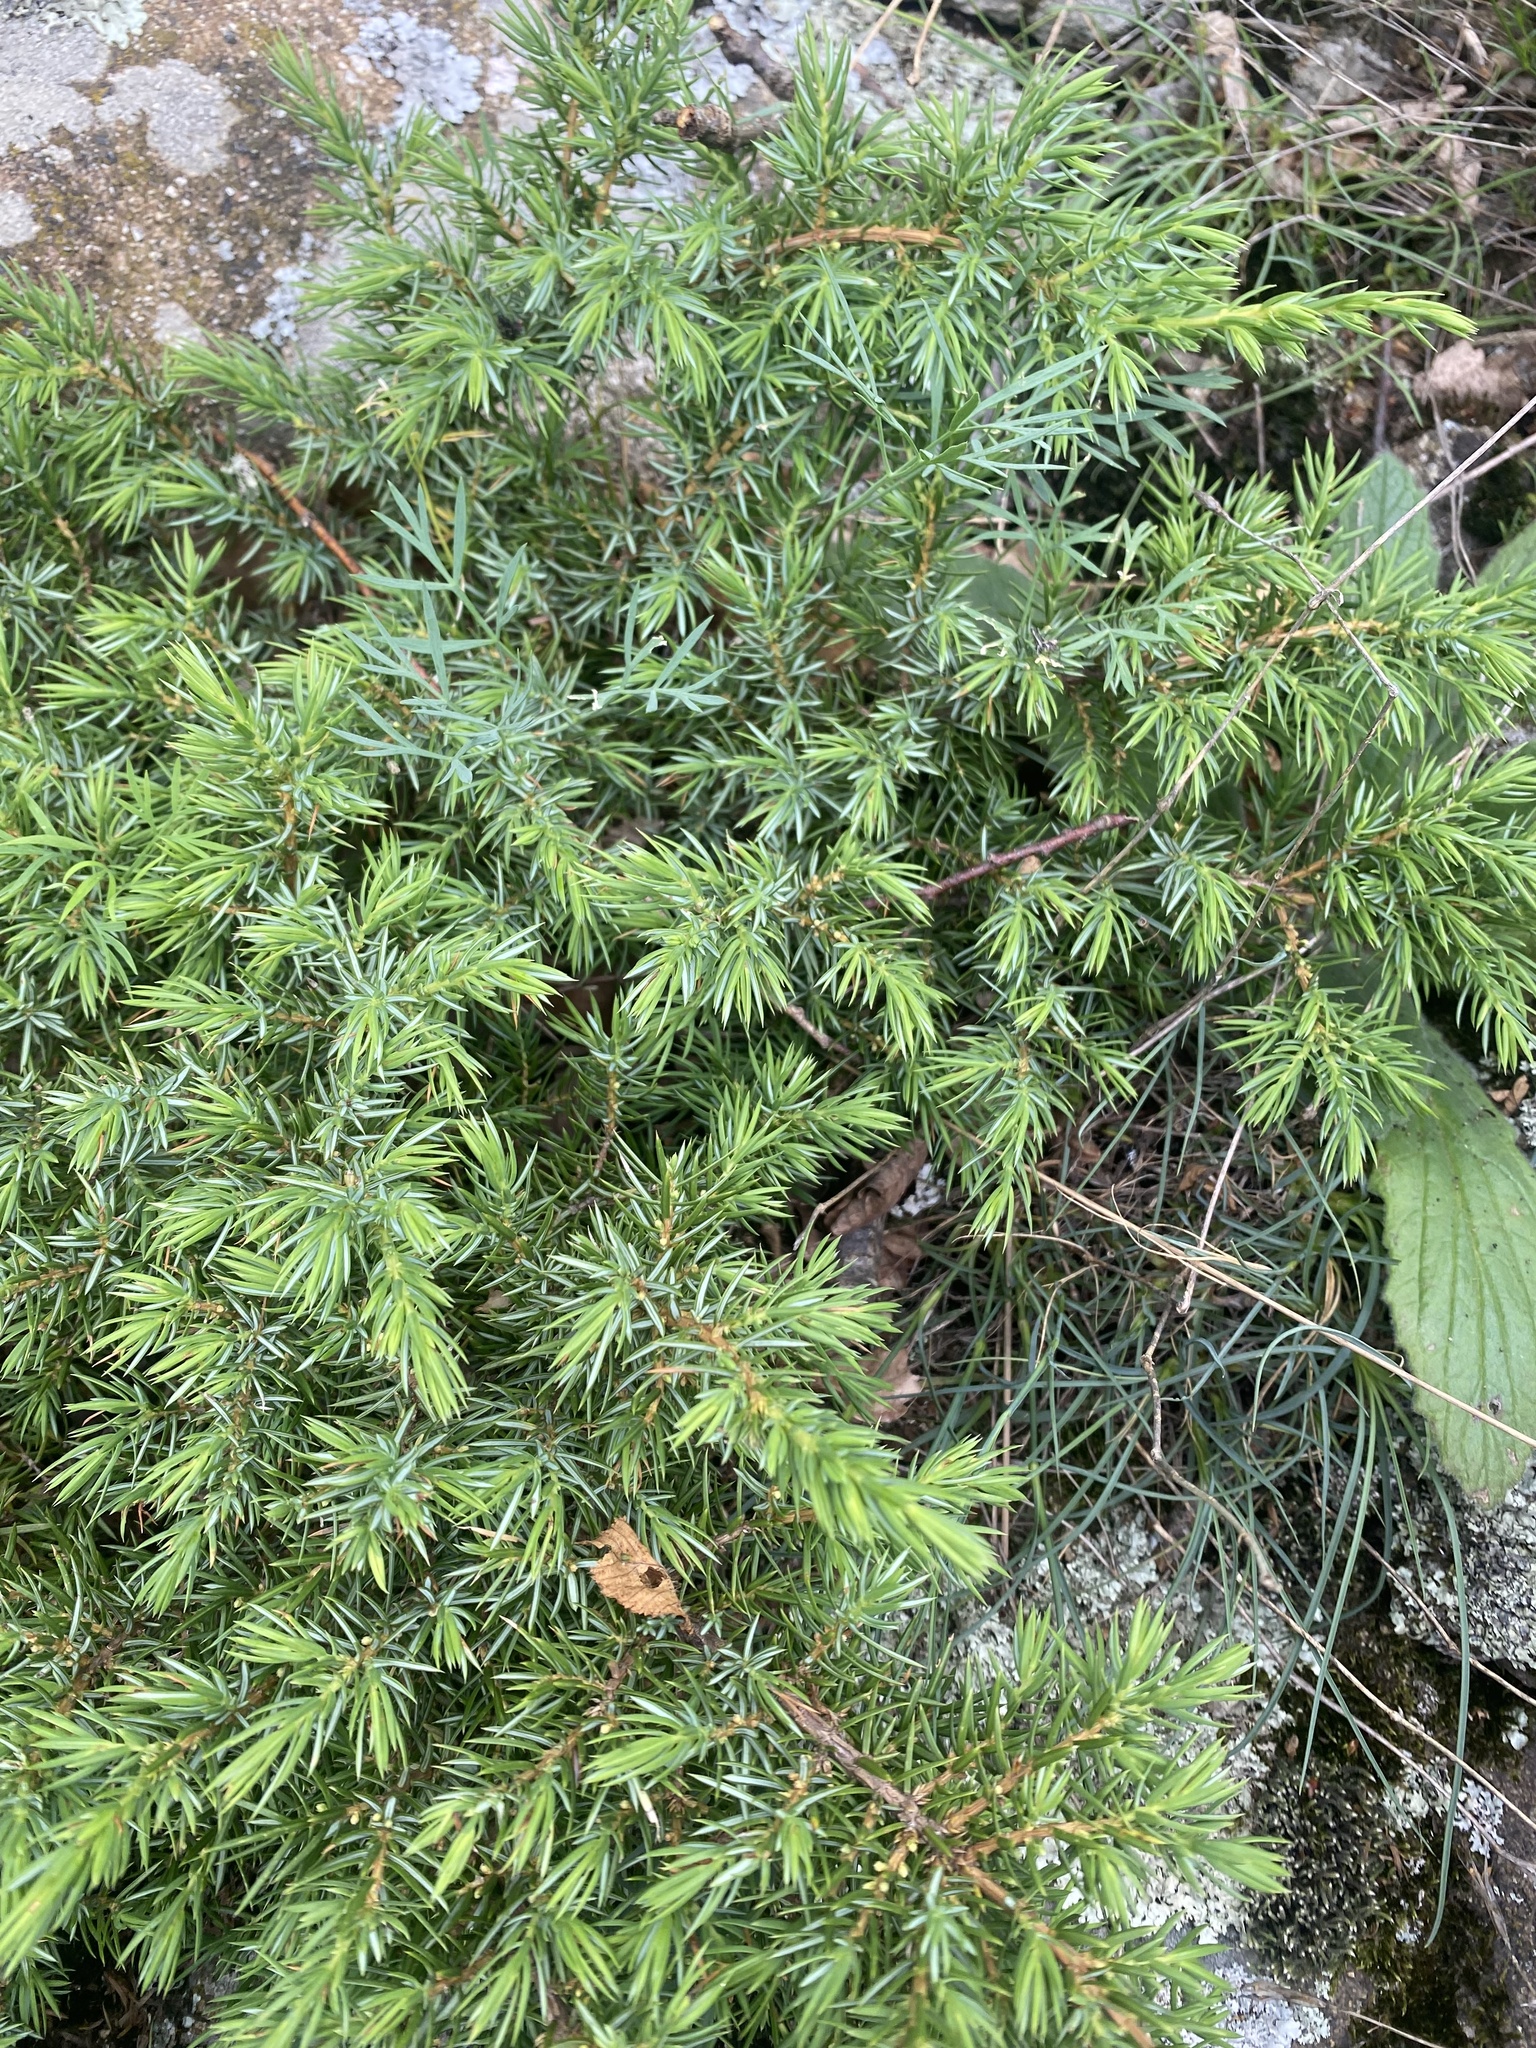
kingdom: Plantae
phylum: Tracheophyta
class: Pinopsida
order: Pinales
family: Cupressaceae
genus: Juniperus
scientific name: Juniperus communis
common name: Common juniper
